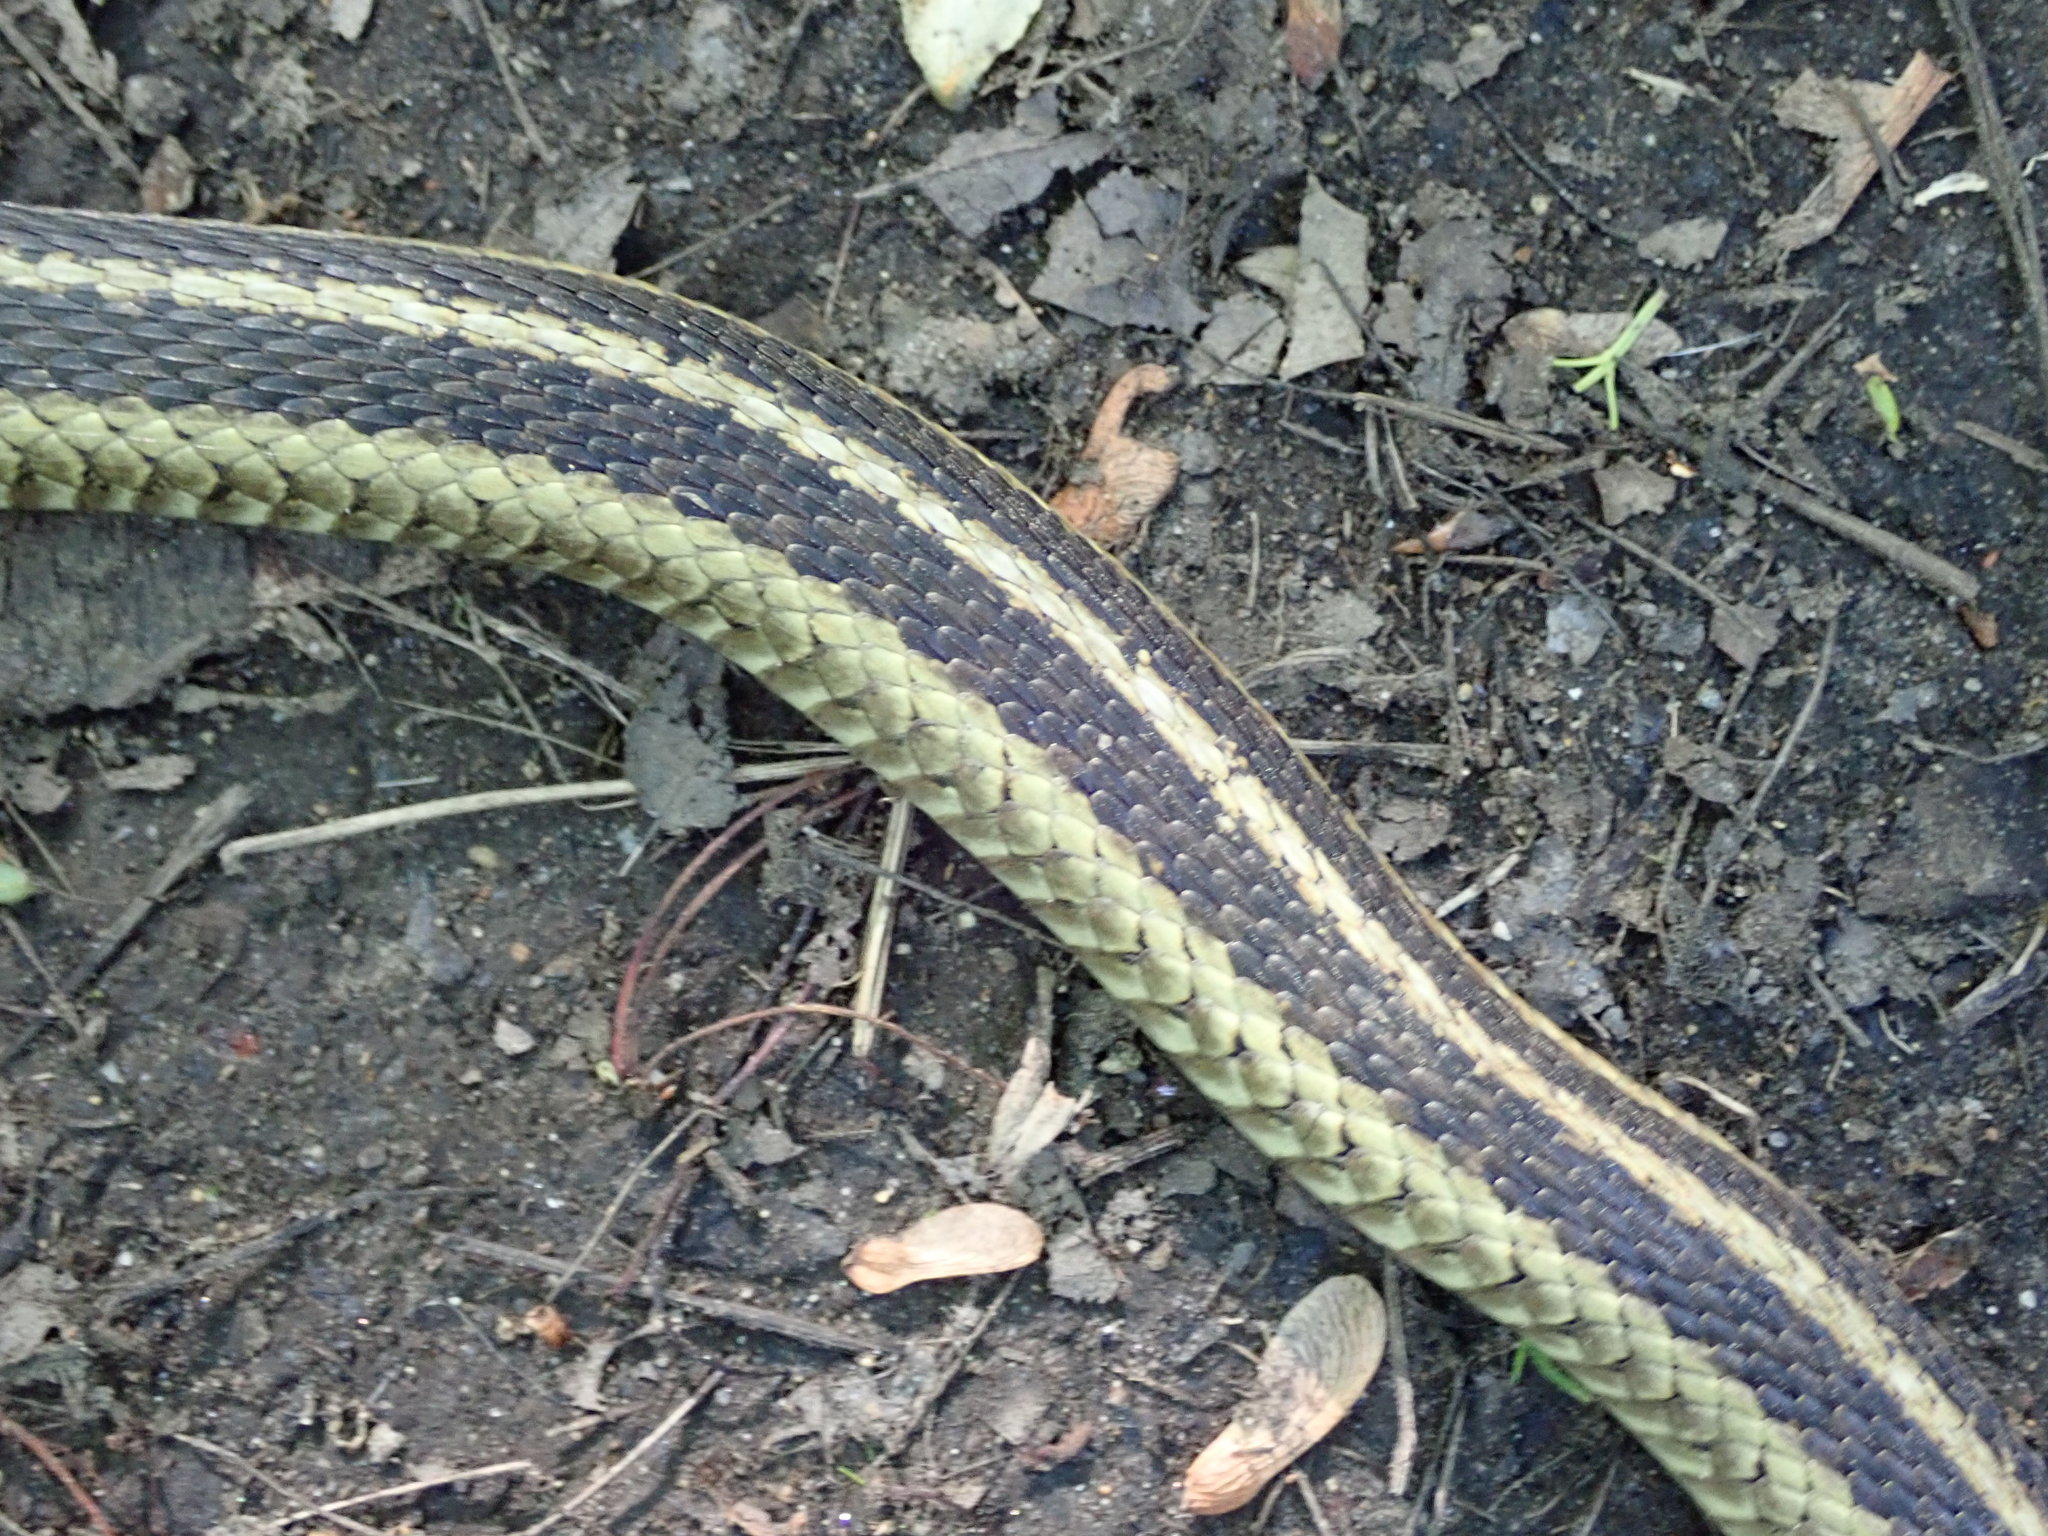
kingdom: Animalia
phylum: Chordata
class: Squamata
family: Colubridae
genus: Thamnophis
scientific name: Thamnophis sirtalis
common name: Common garter snake
